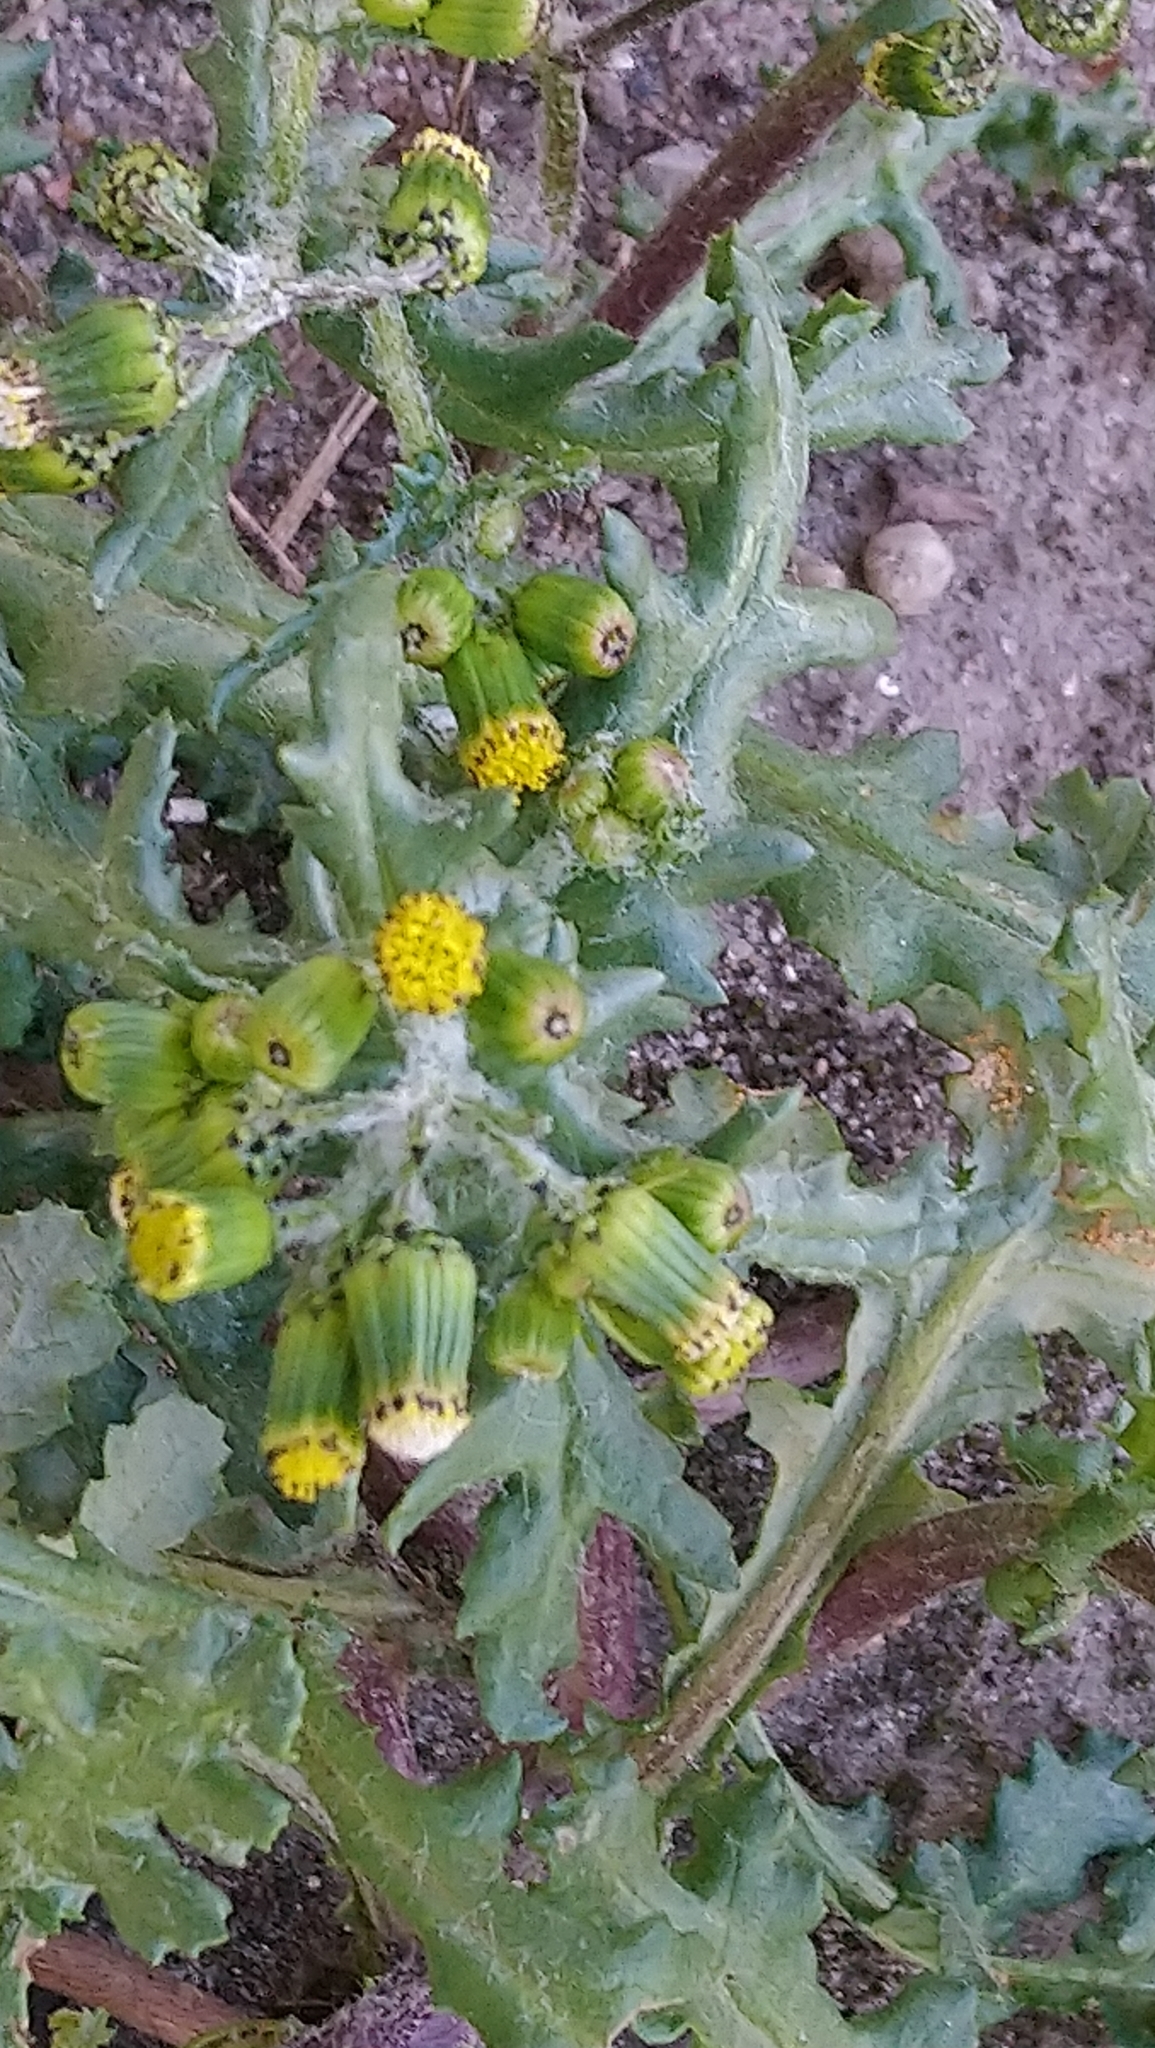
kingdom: Plantae
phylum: Tracheophyta
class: Magnoliopsida
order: Asterales
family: Asteraceae
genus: Senecio
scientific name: Senecio vulgaris
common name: Old-man-in-the-spring
